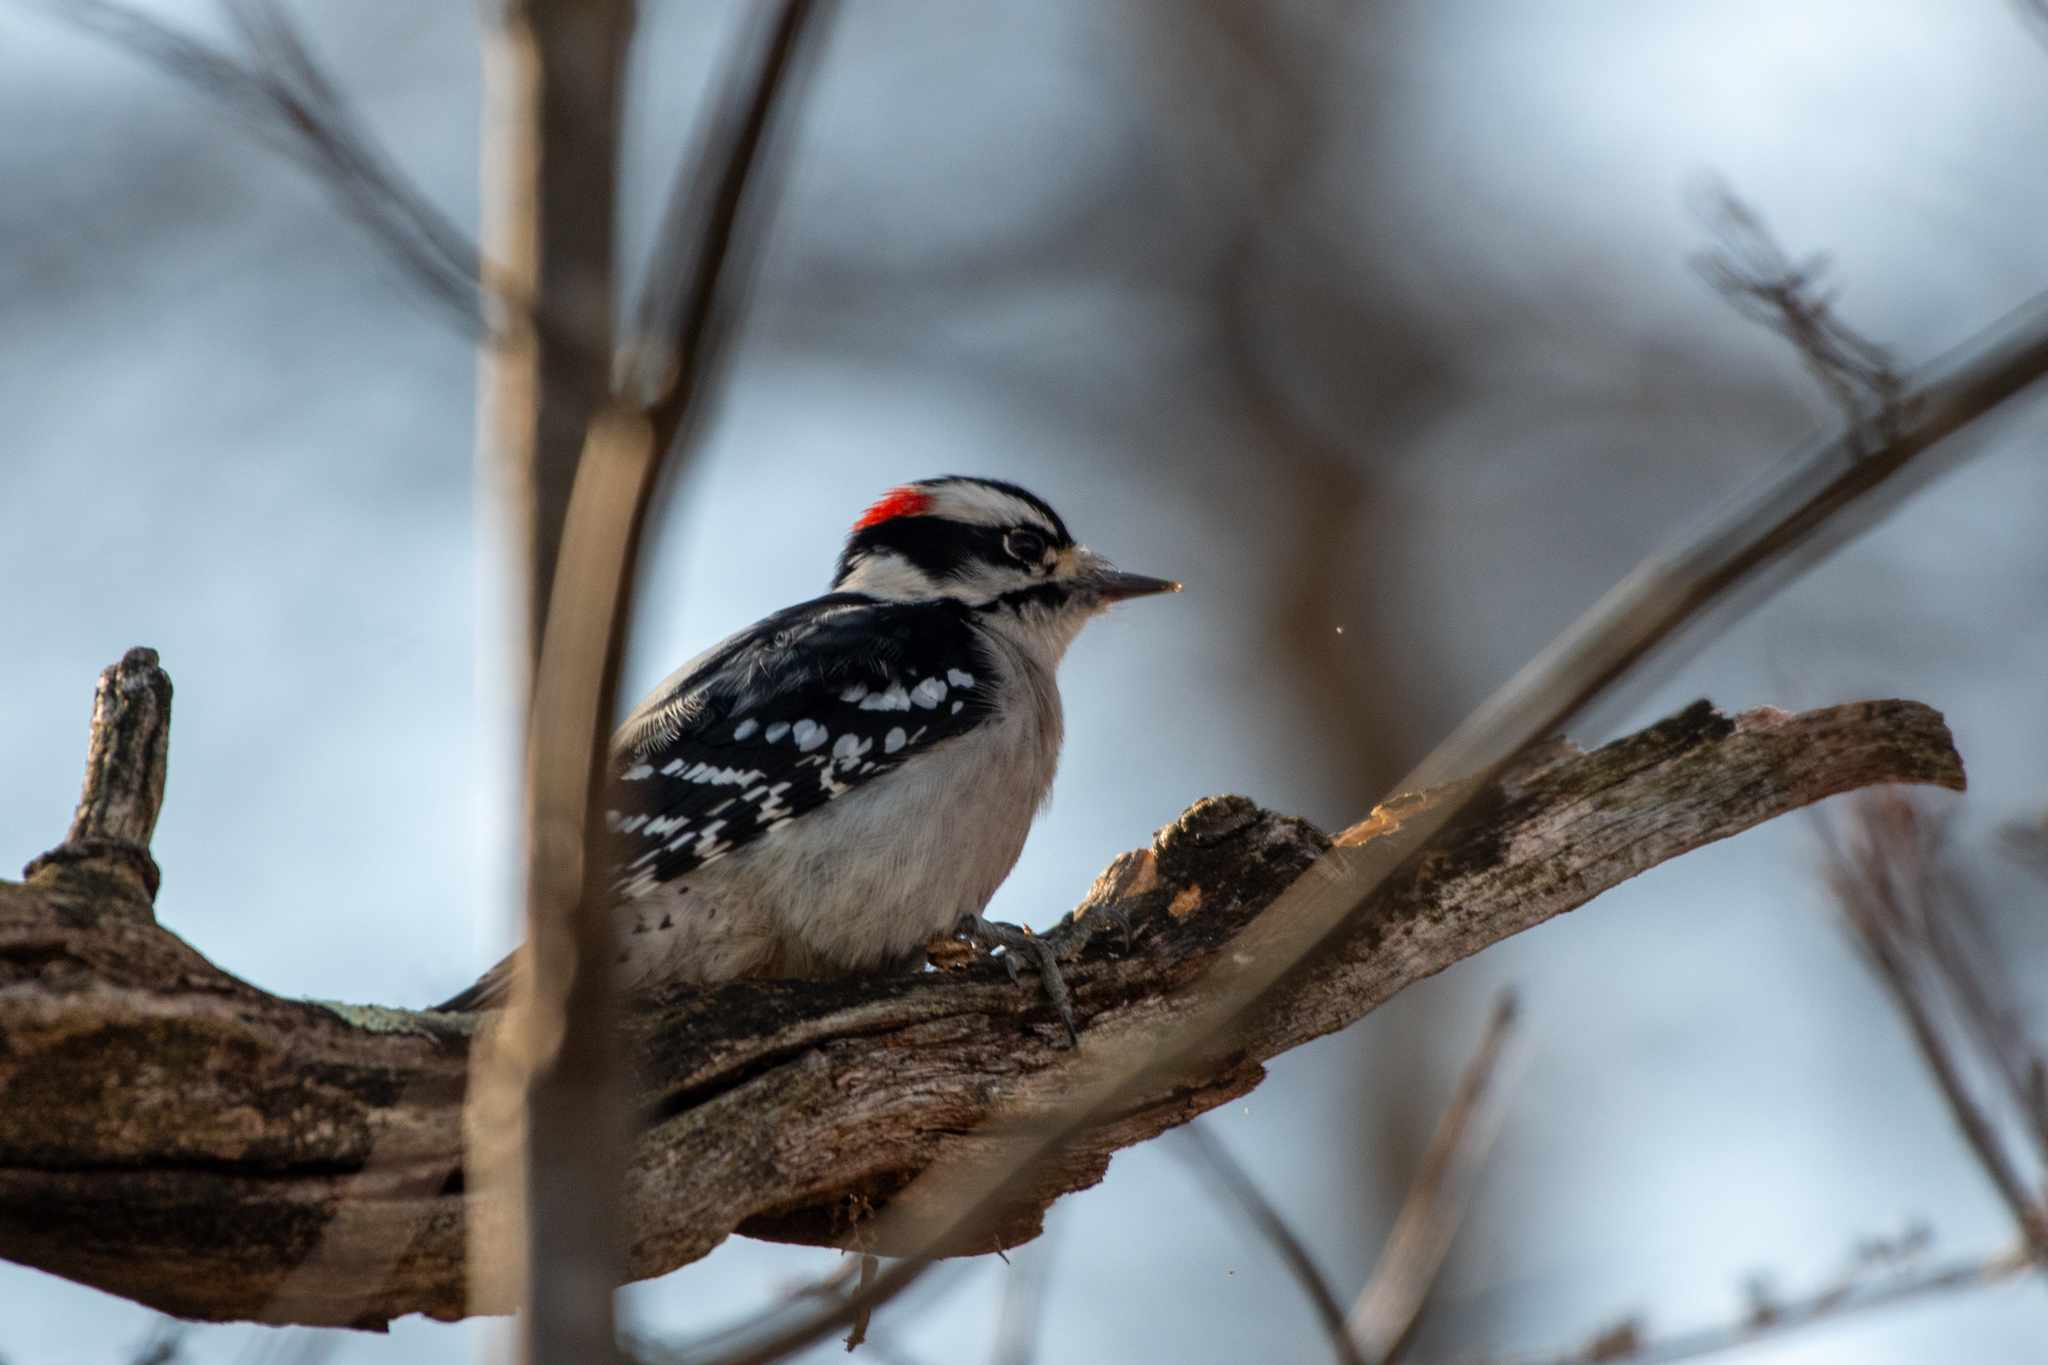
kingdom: Animalia
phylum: Chordata
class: Aves
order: Piciformes
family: Picidae
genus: Dryobates
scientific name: Dryobates pubescens
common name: Downy woodpecker
